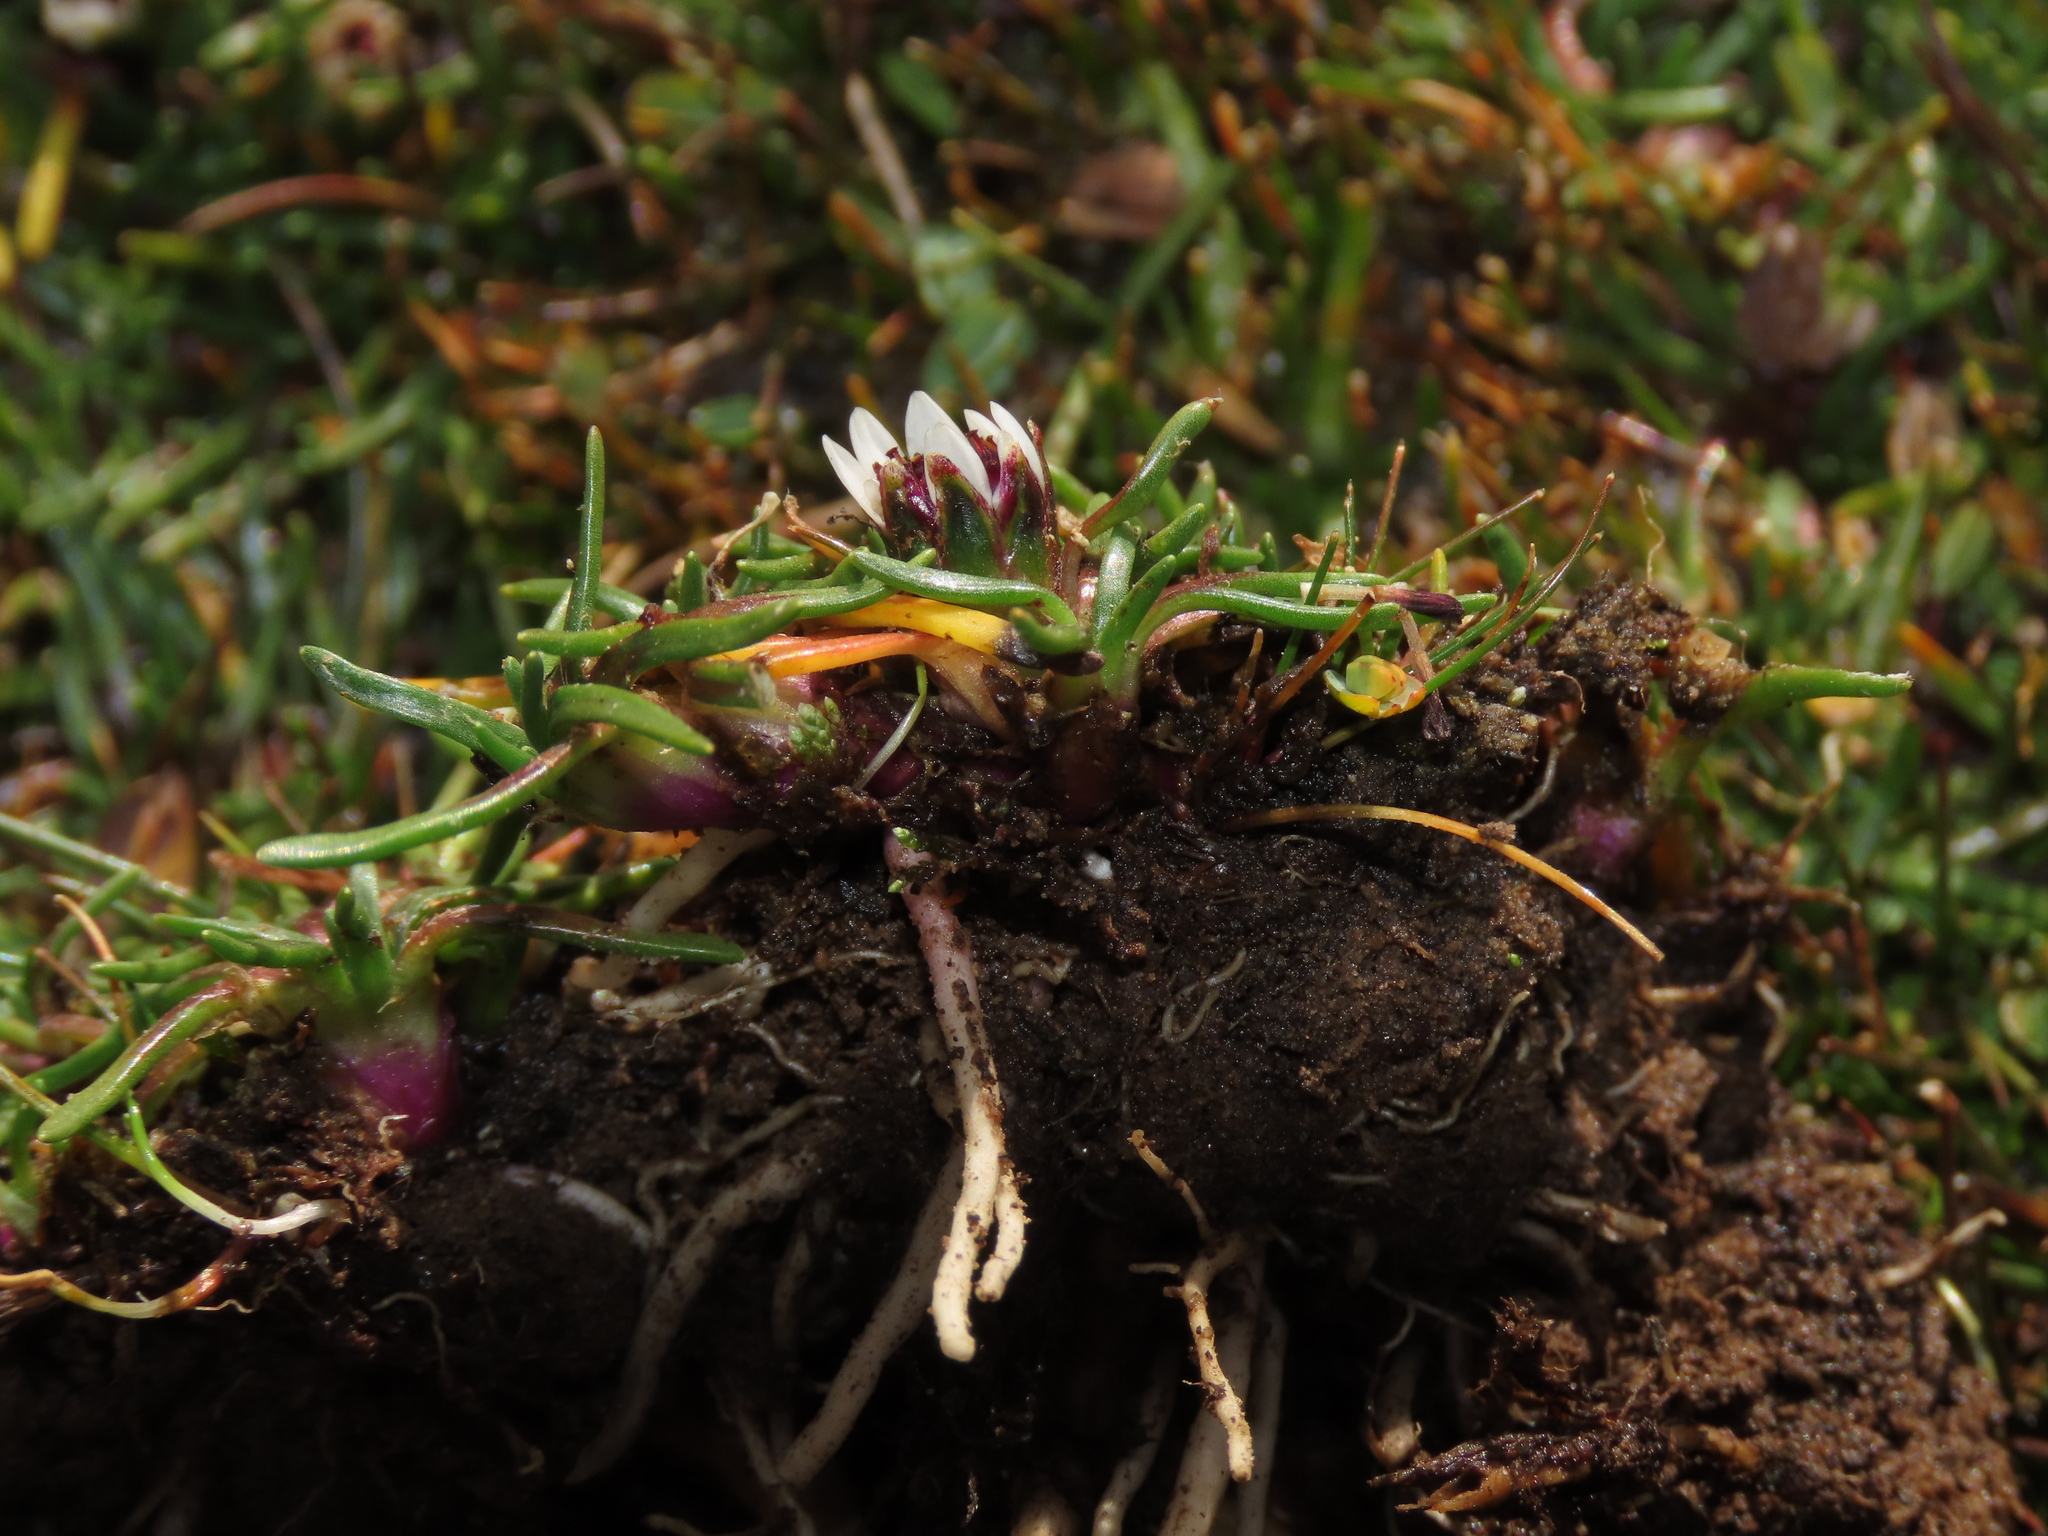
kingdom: Plantae
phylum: Tracheophyta
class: Magnoliopsida
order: Asterales
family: Asteraceae
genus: Rockhausenia
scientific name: Rockhausenia pygmaea
